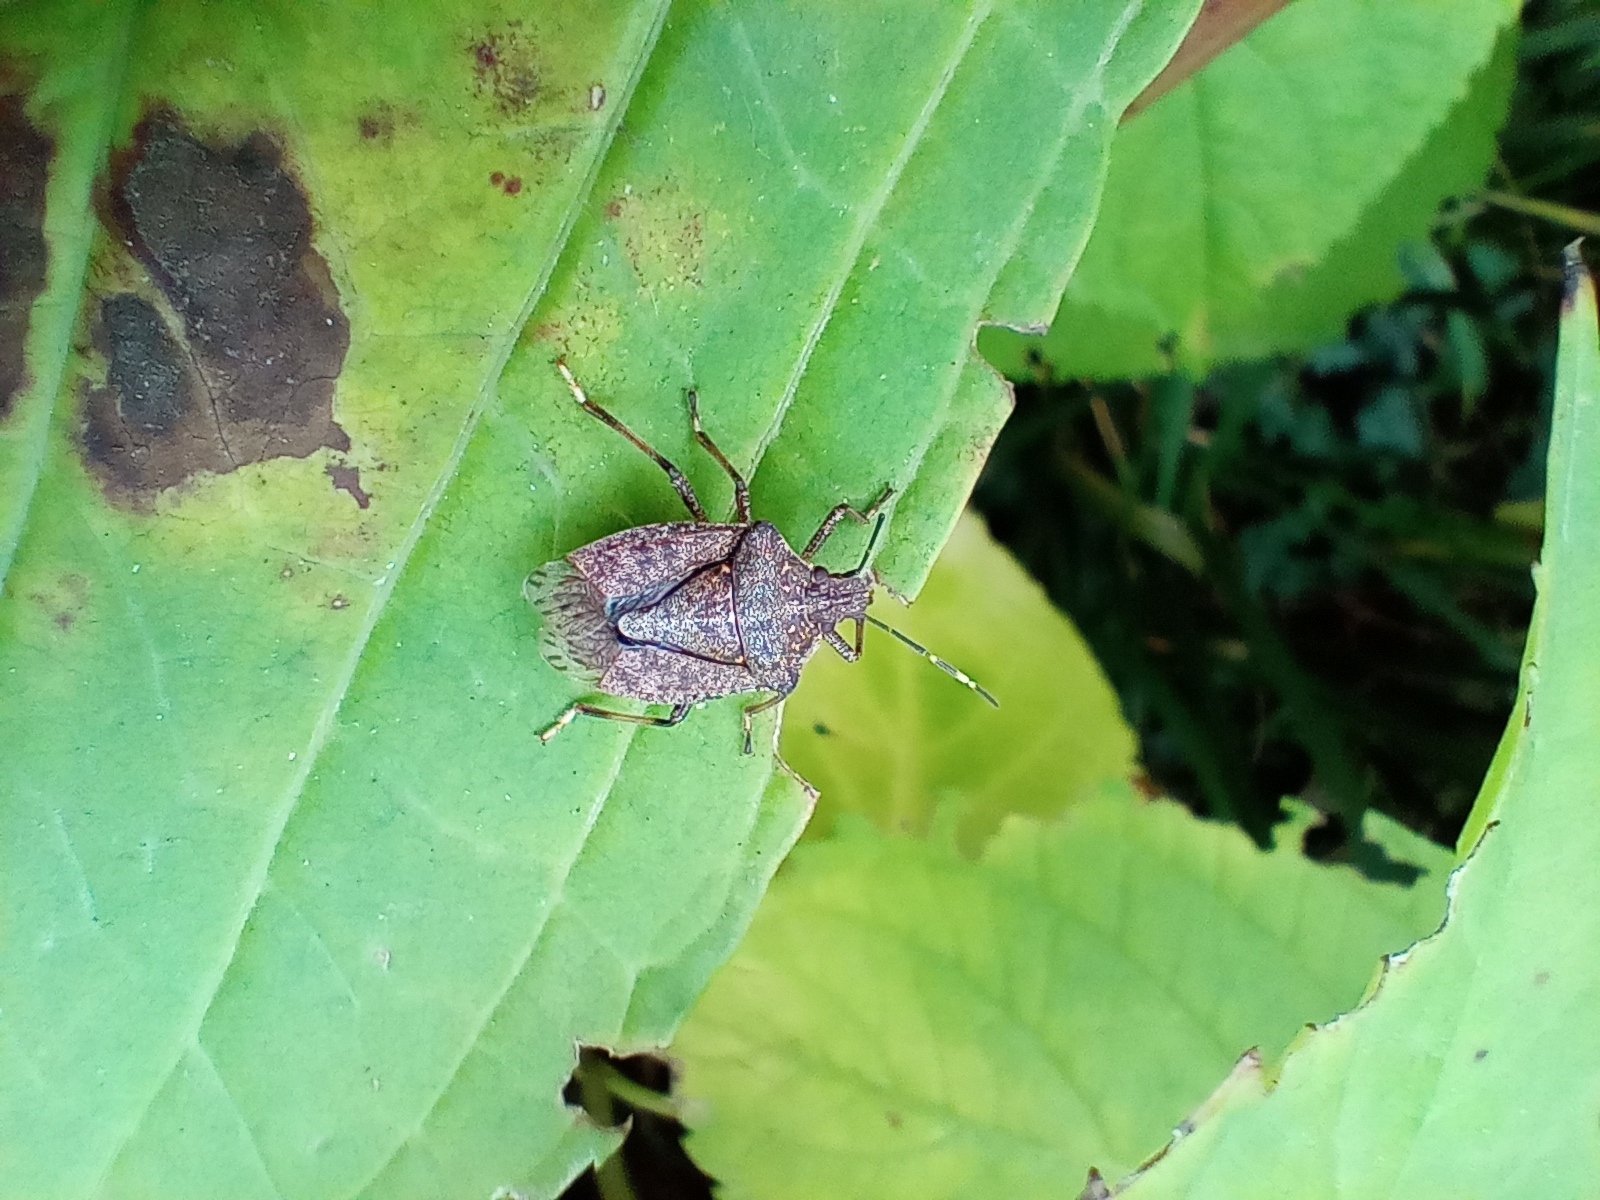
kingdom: Animalia
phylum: Arthropoda
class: Insecta
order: Hemiptera
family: Pentatomidae
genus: Halyomorpha
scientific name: Halyomorpha halys
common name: Brown marmorated stink bug
